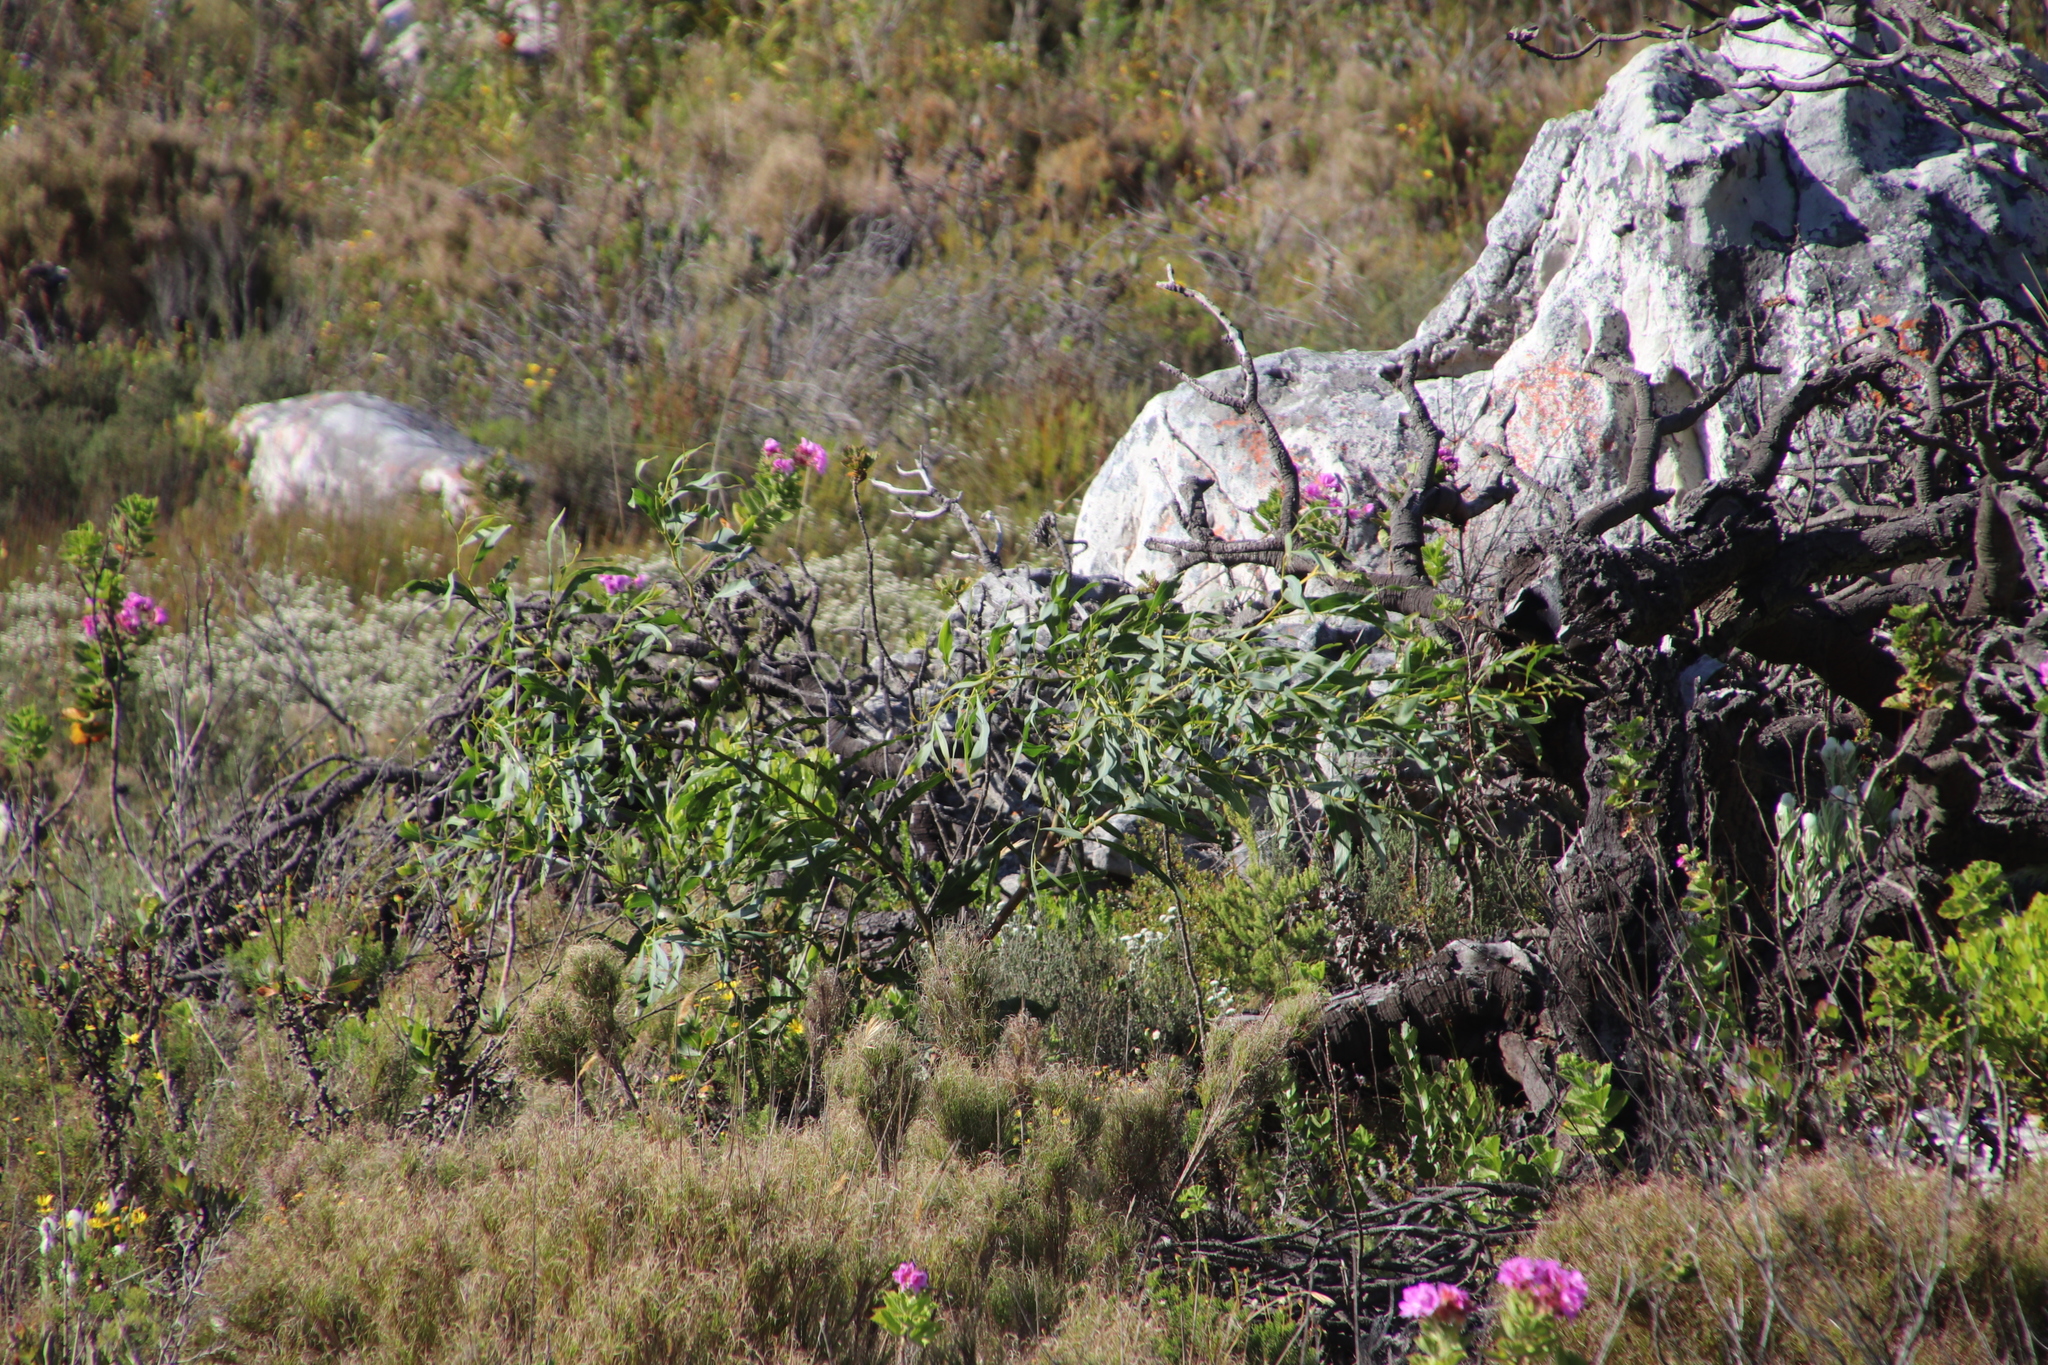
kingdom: Plantae
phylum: Tracheophyta
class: Magnoliopsida
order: Fabales
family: Fabaceae
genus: Acacia
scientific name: Acacia saligna
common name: Orange wattle
